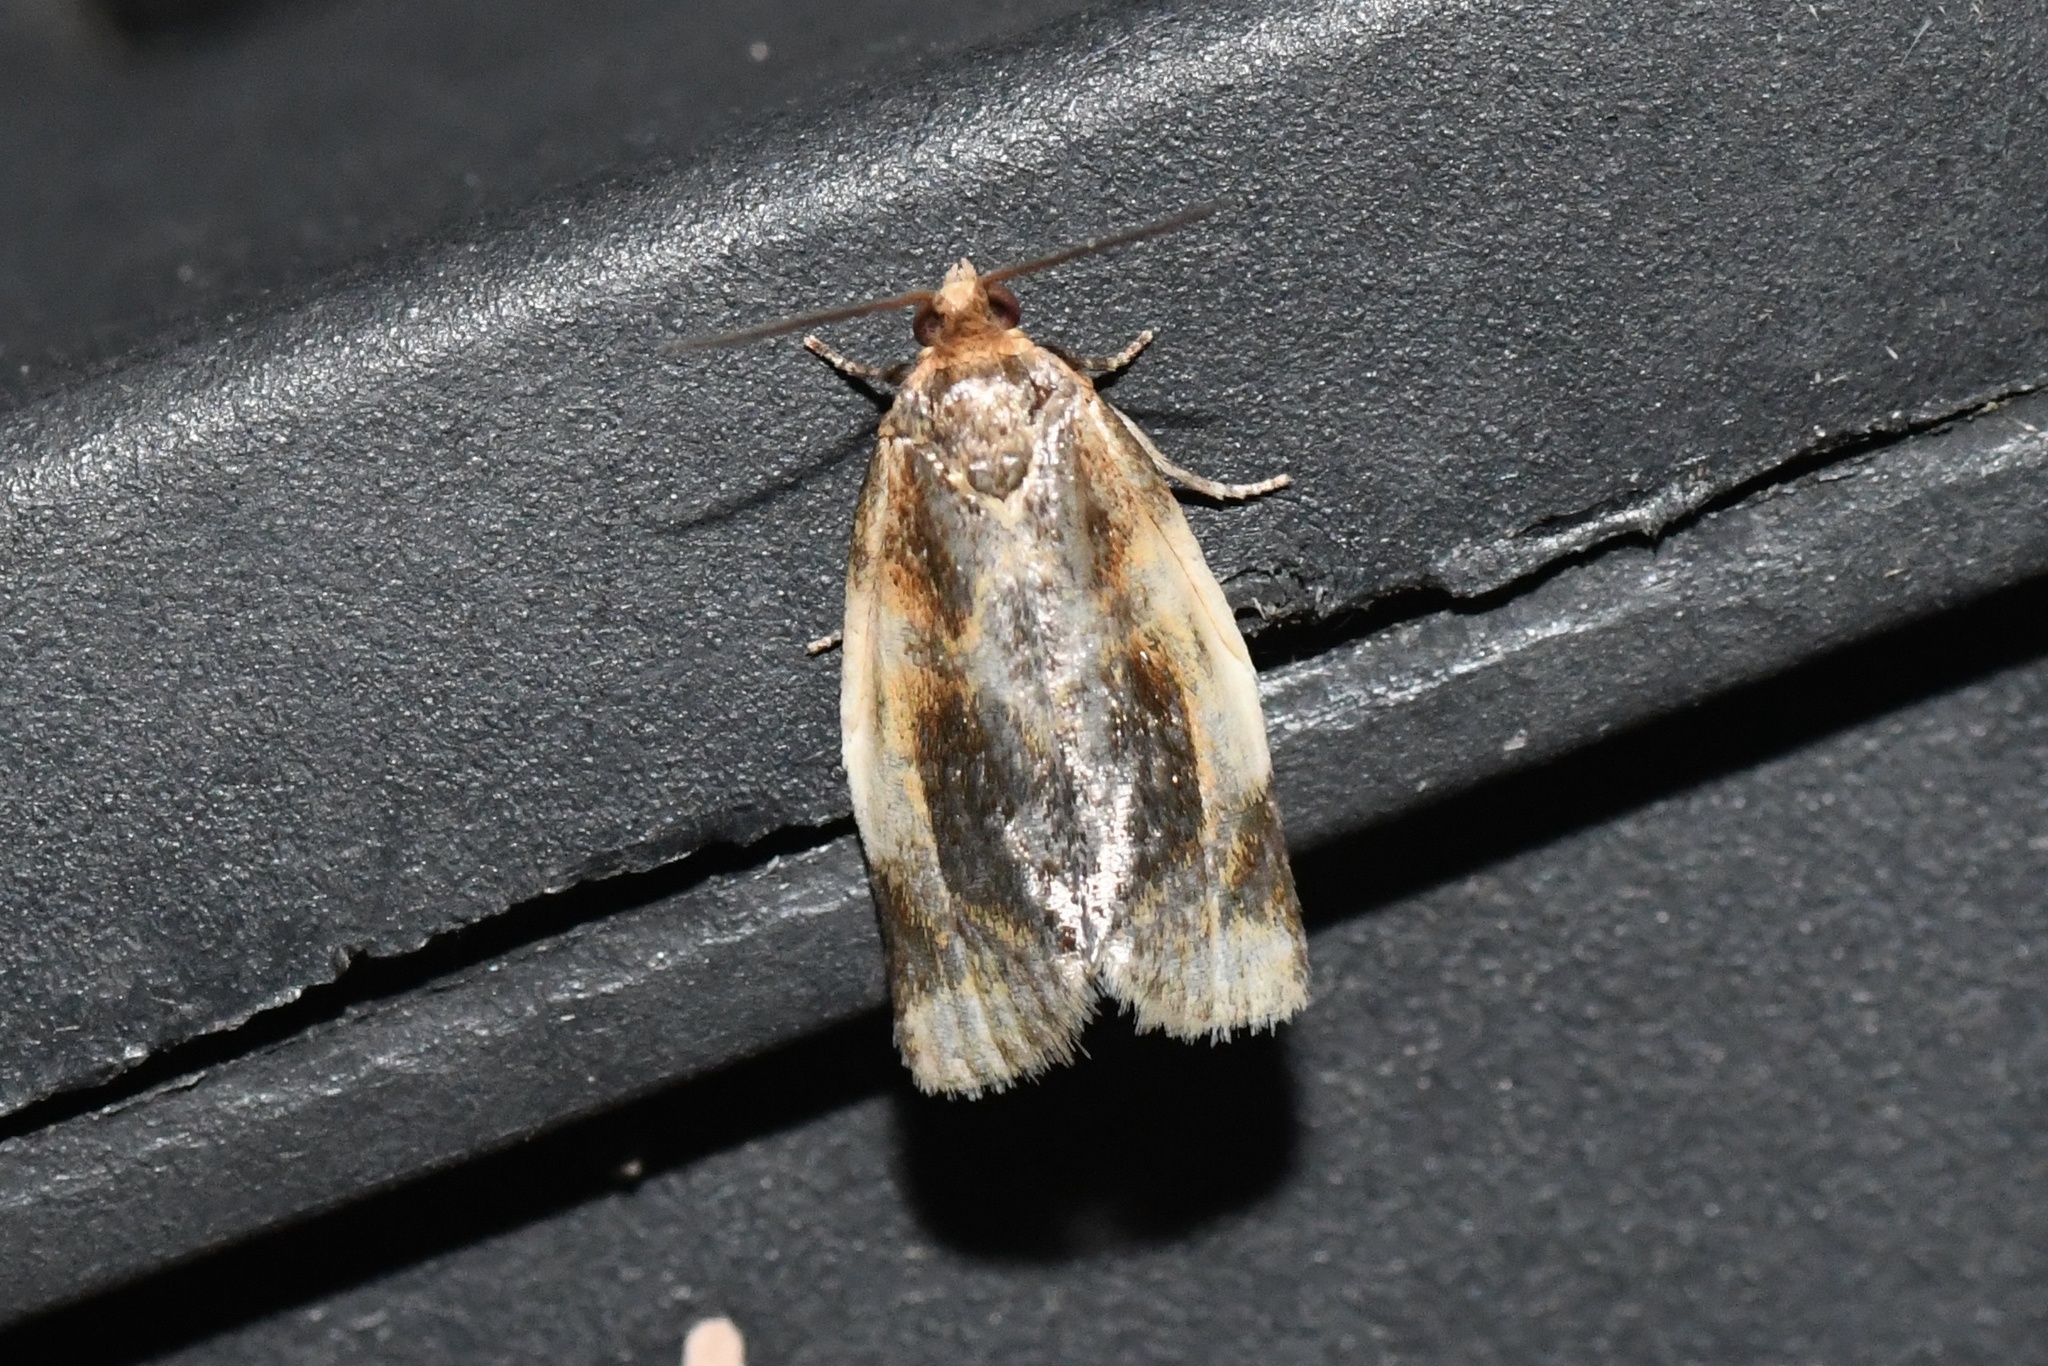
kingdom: Animalia
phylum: Arthropoda
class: Insecta
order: Lepidoptera
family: Tortricidae
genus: Clepsis
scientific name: Clepsis melaleucanus
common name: American apple tortrix
